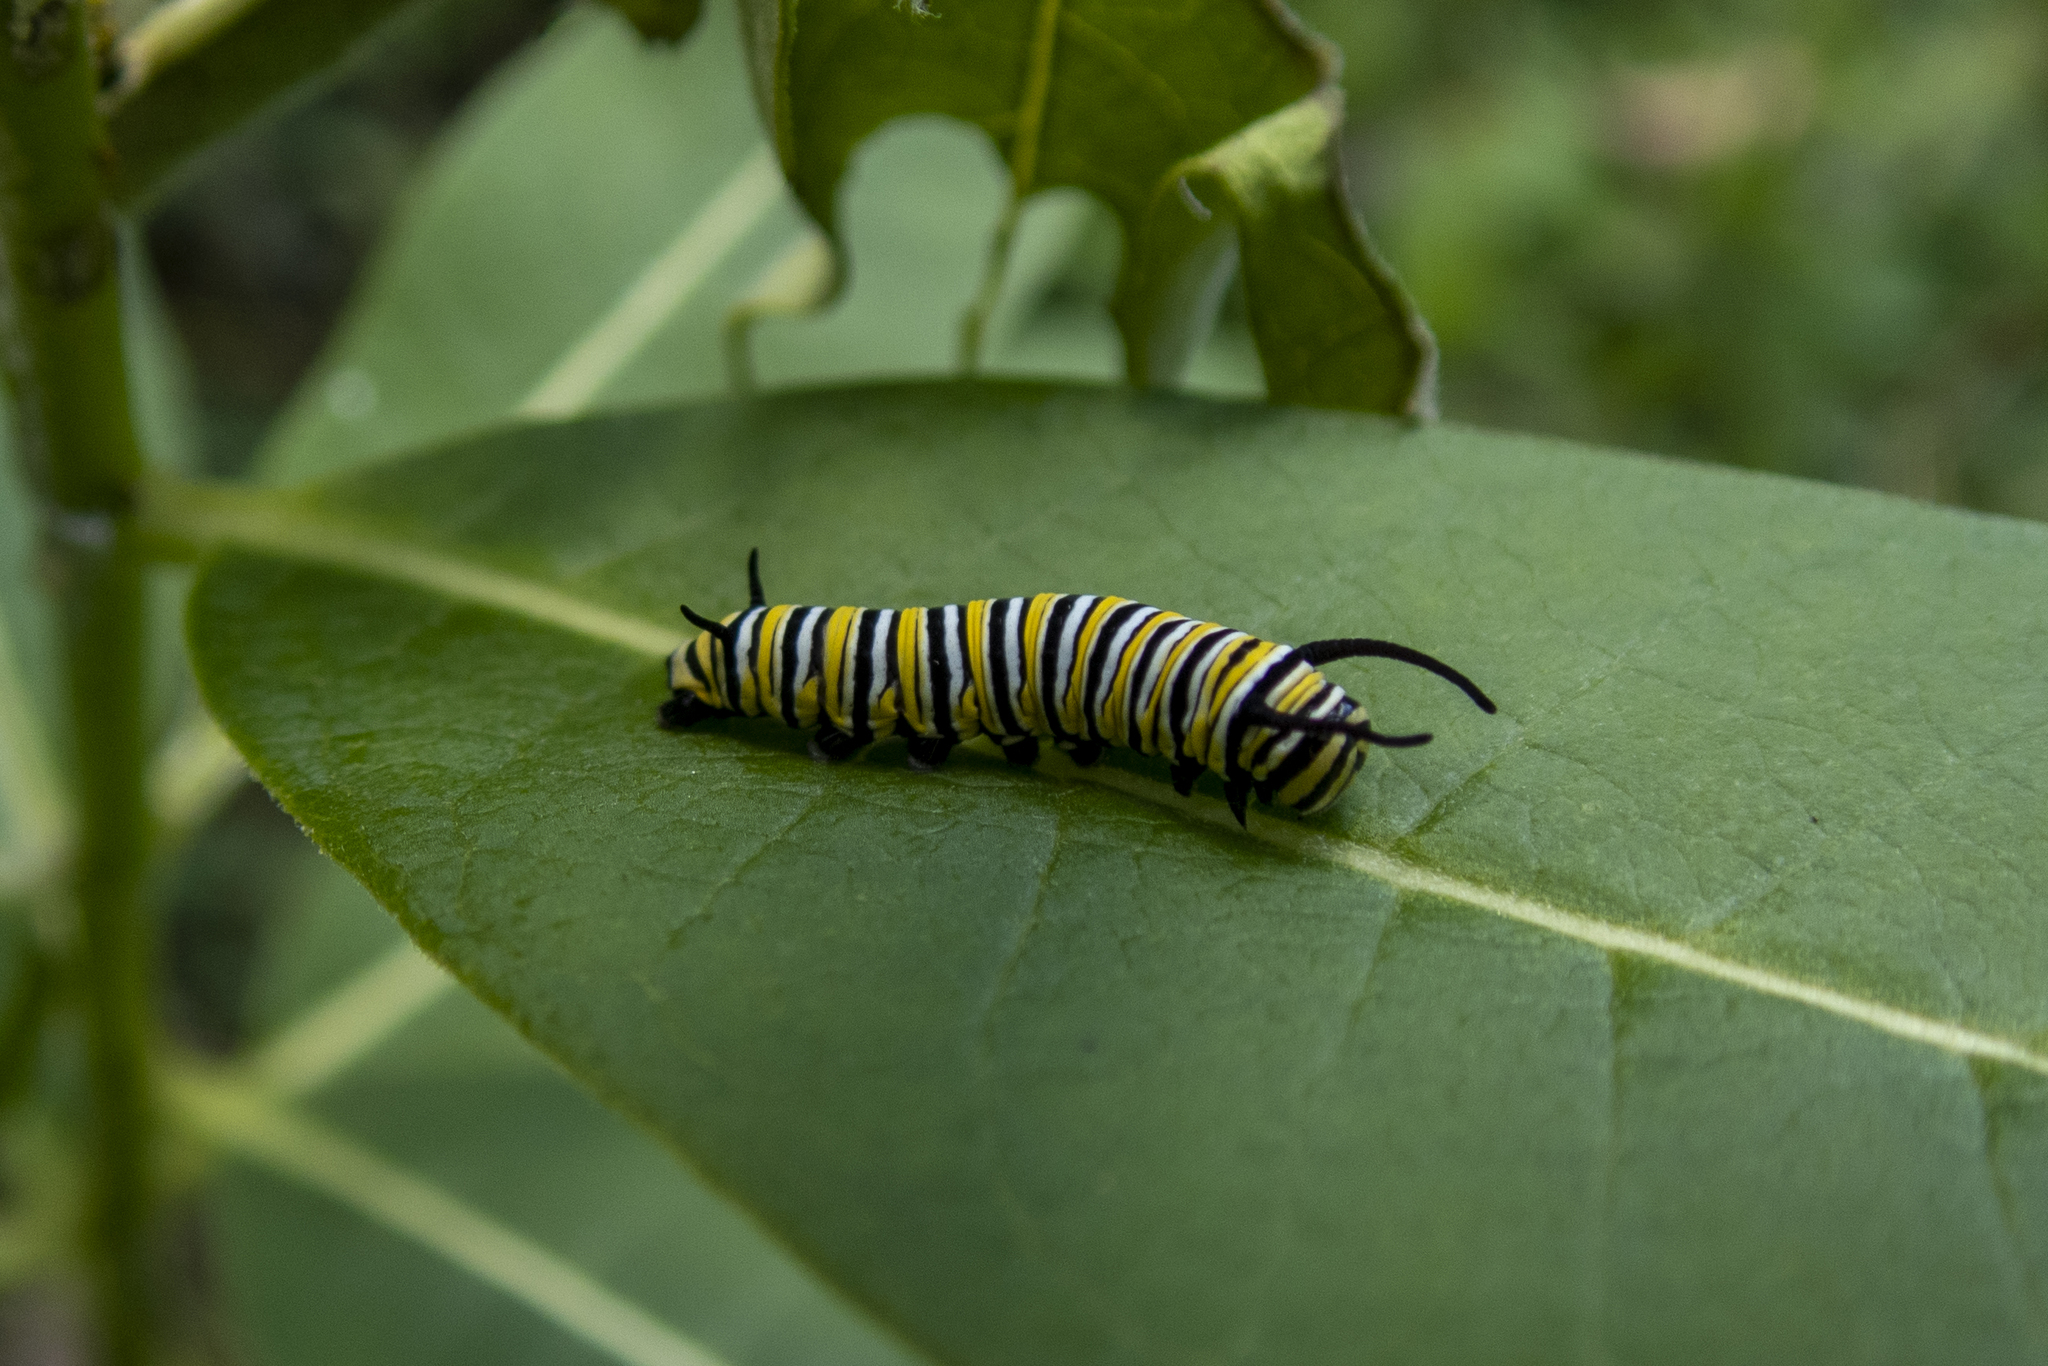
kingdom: Animalia
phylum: Arthropoda
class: Insecta
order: Lepidoptera
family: Nymphalidae
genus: Danaus
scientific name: Danaus plexippus
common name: Monarch
